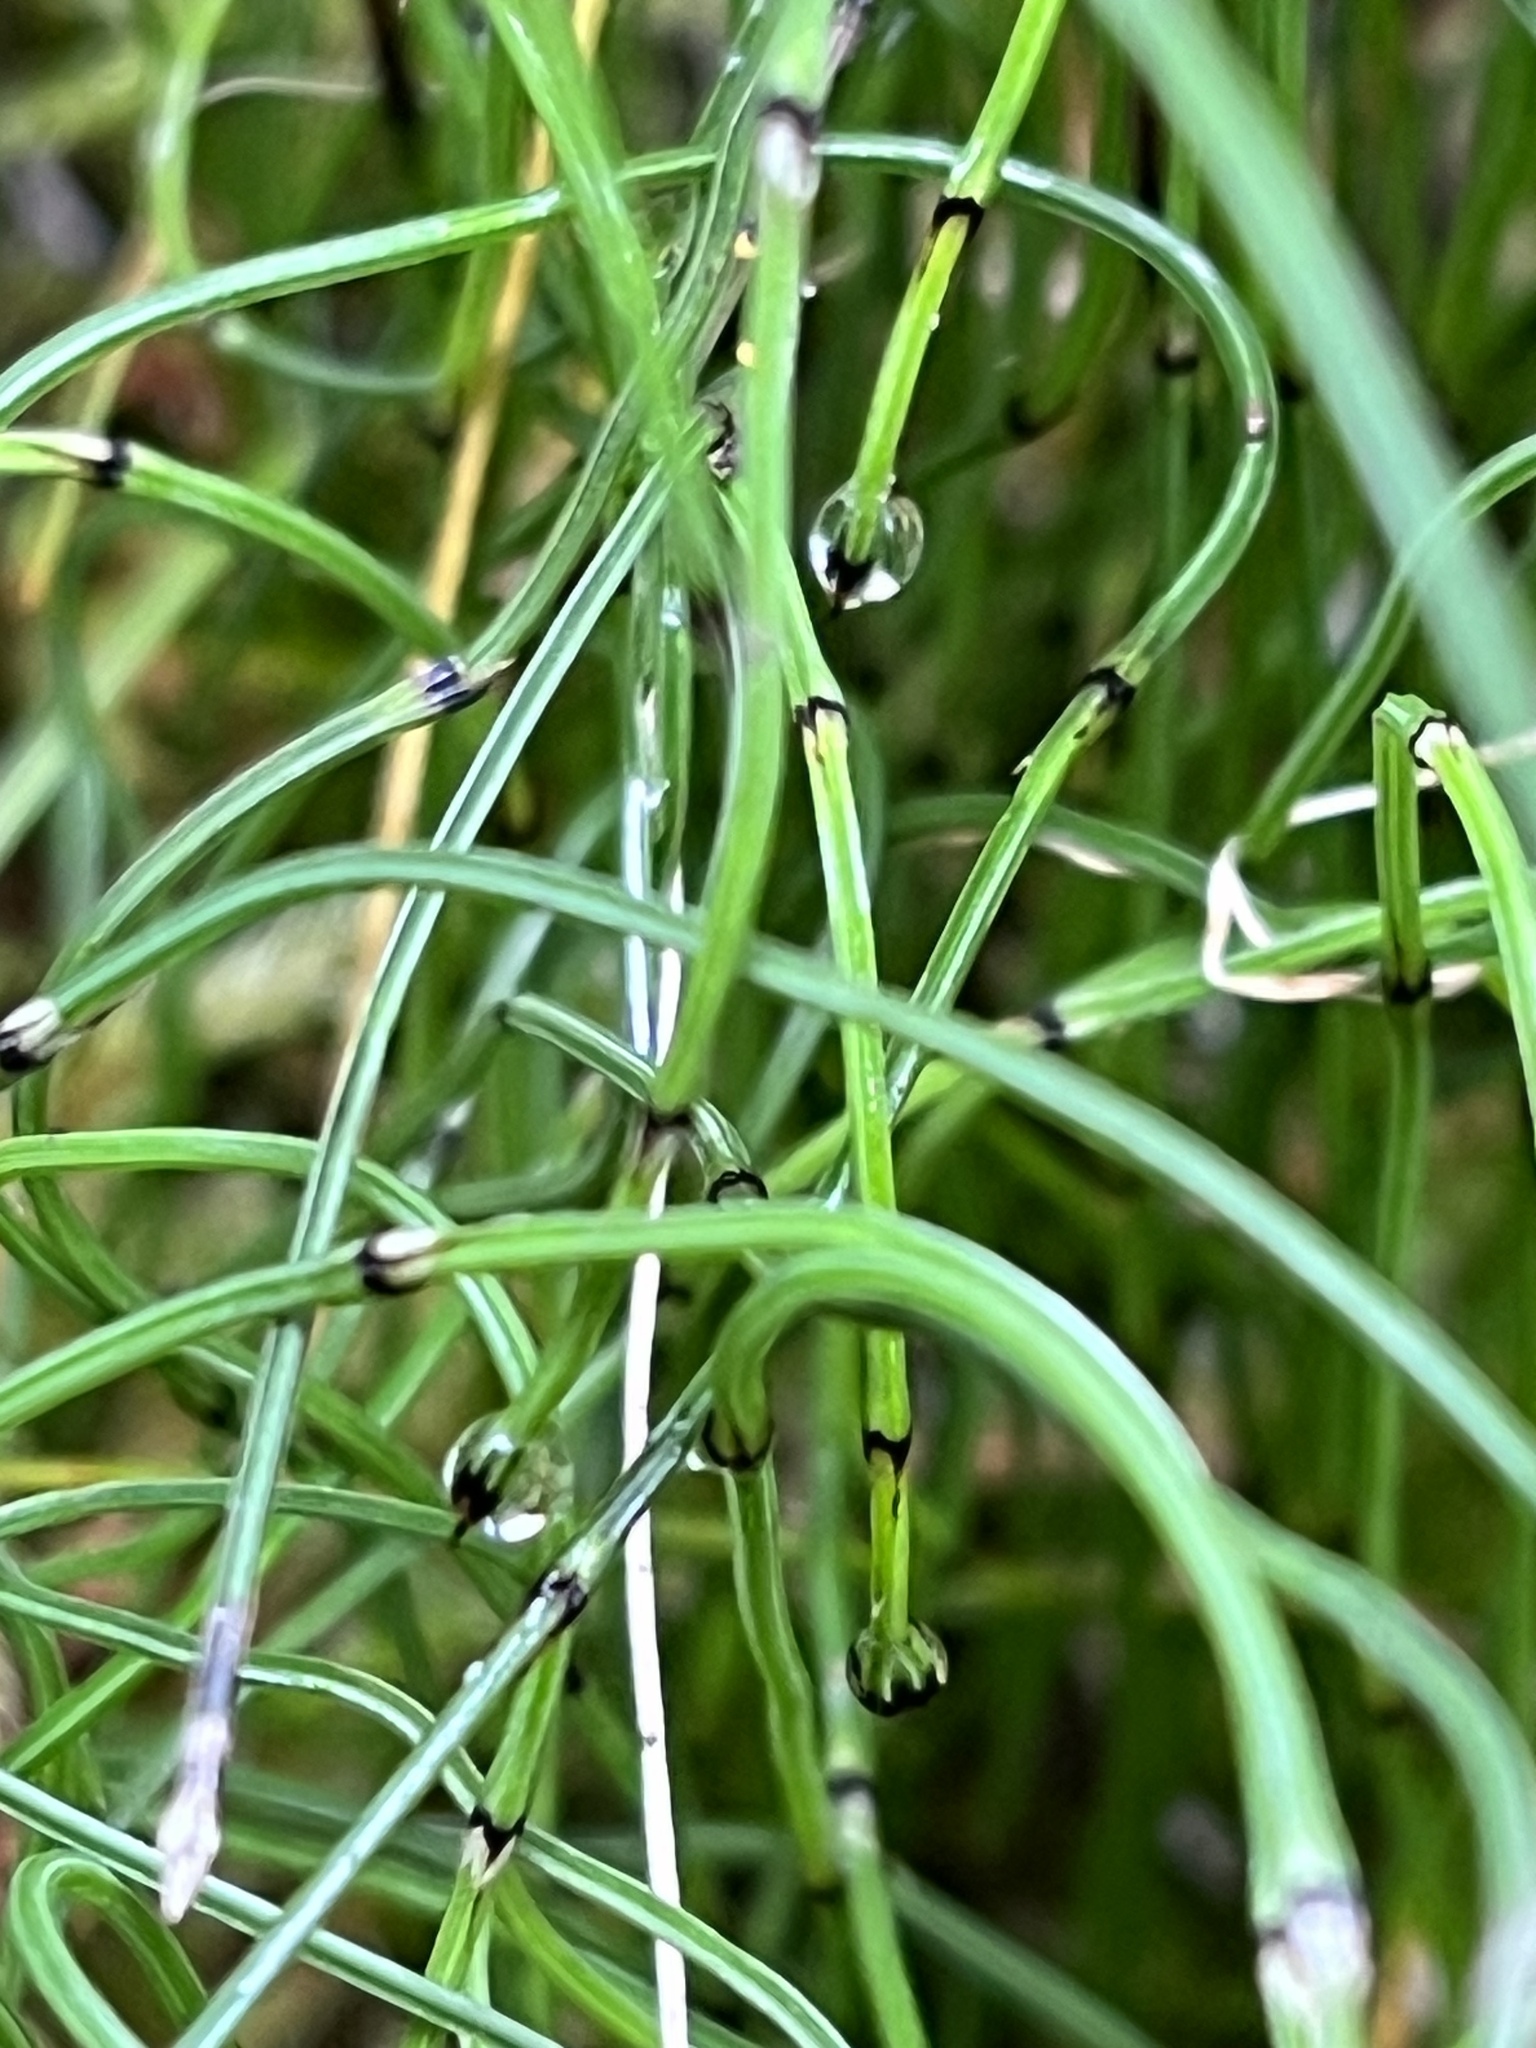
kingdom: Plantae
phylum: Tracheophyta
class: Polypodiopsida
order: Equisetales
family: Equisetaceae
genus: Equisetum
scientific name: Equisetum scirpoides
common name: Delicate horsetail
